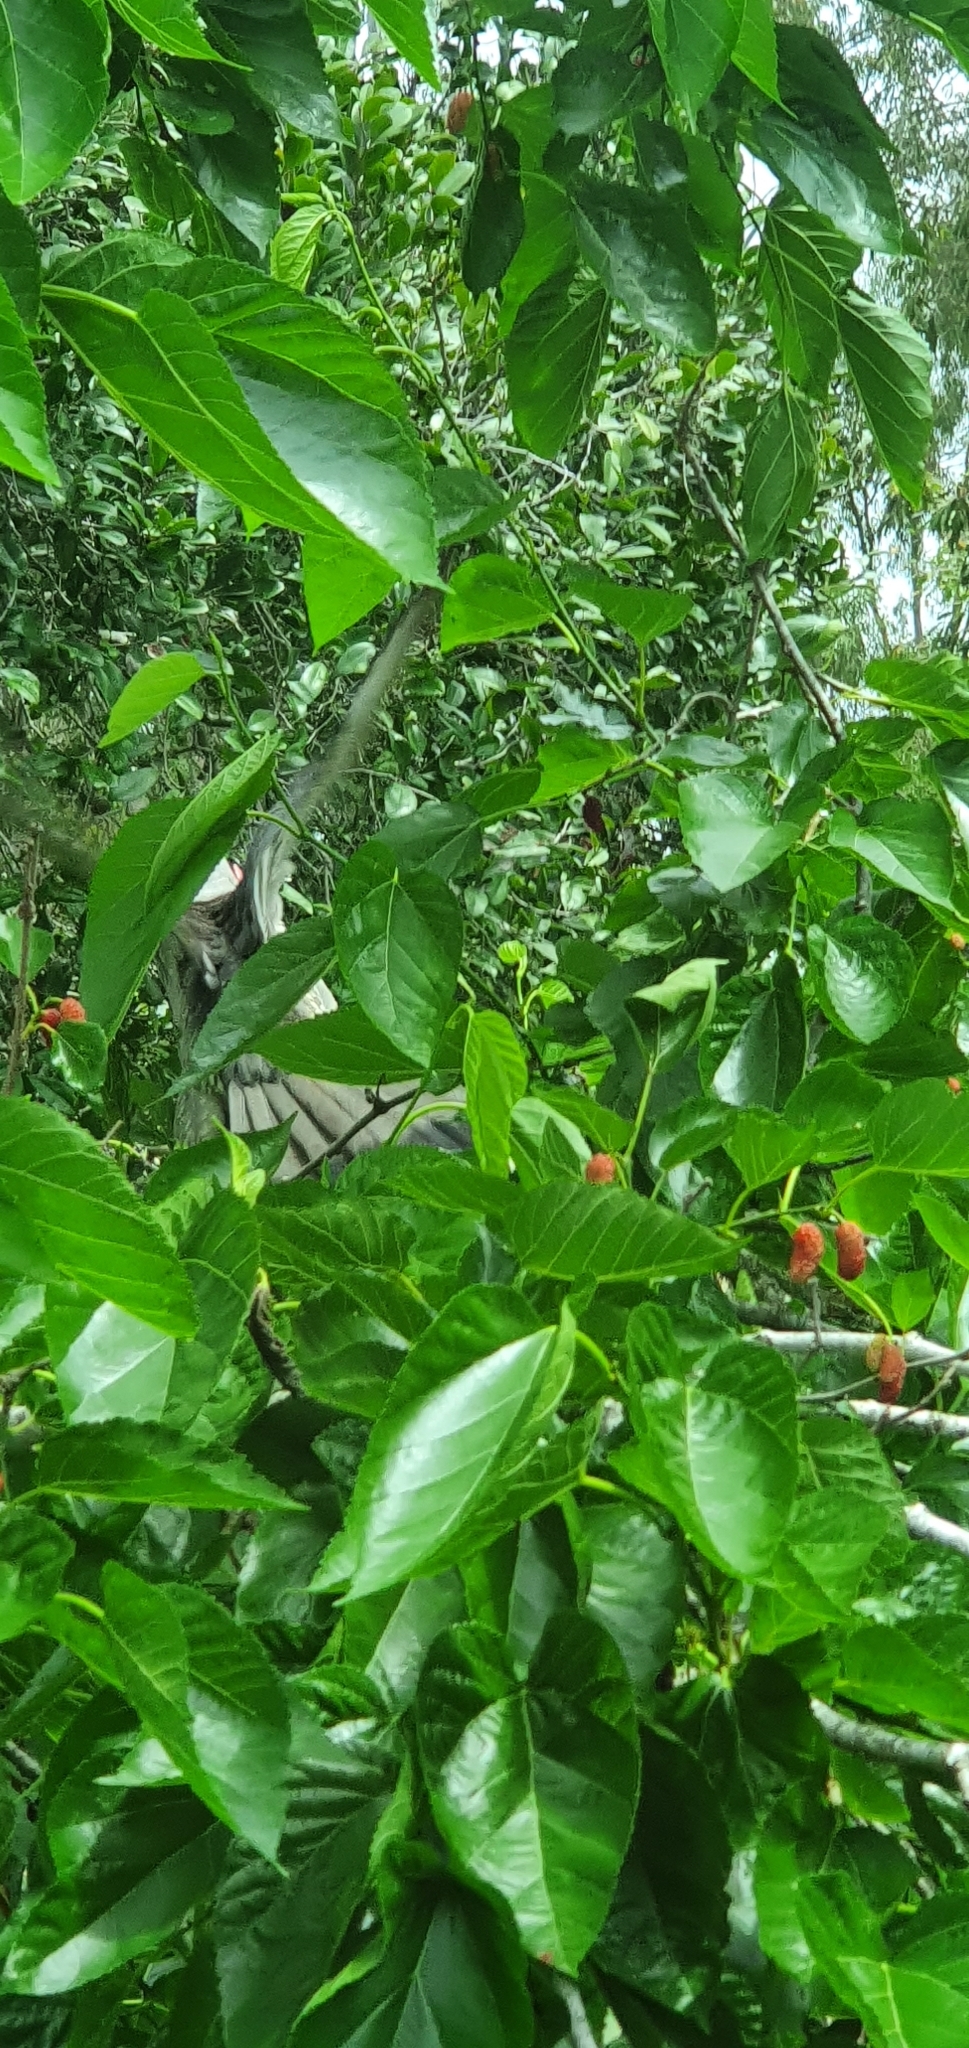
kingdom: Animalia
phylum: Chordata
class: Aves
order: Cuculiformes
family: Cuculidae
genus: Scythrops
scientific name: Scythrops novaehollandiae
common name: Channel-billed cuckoo
